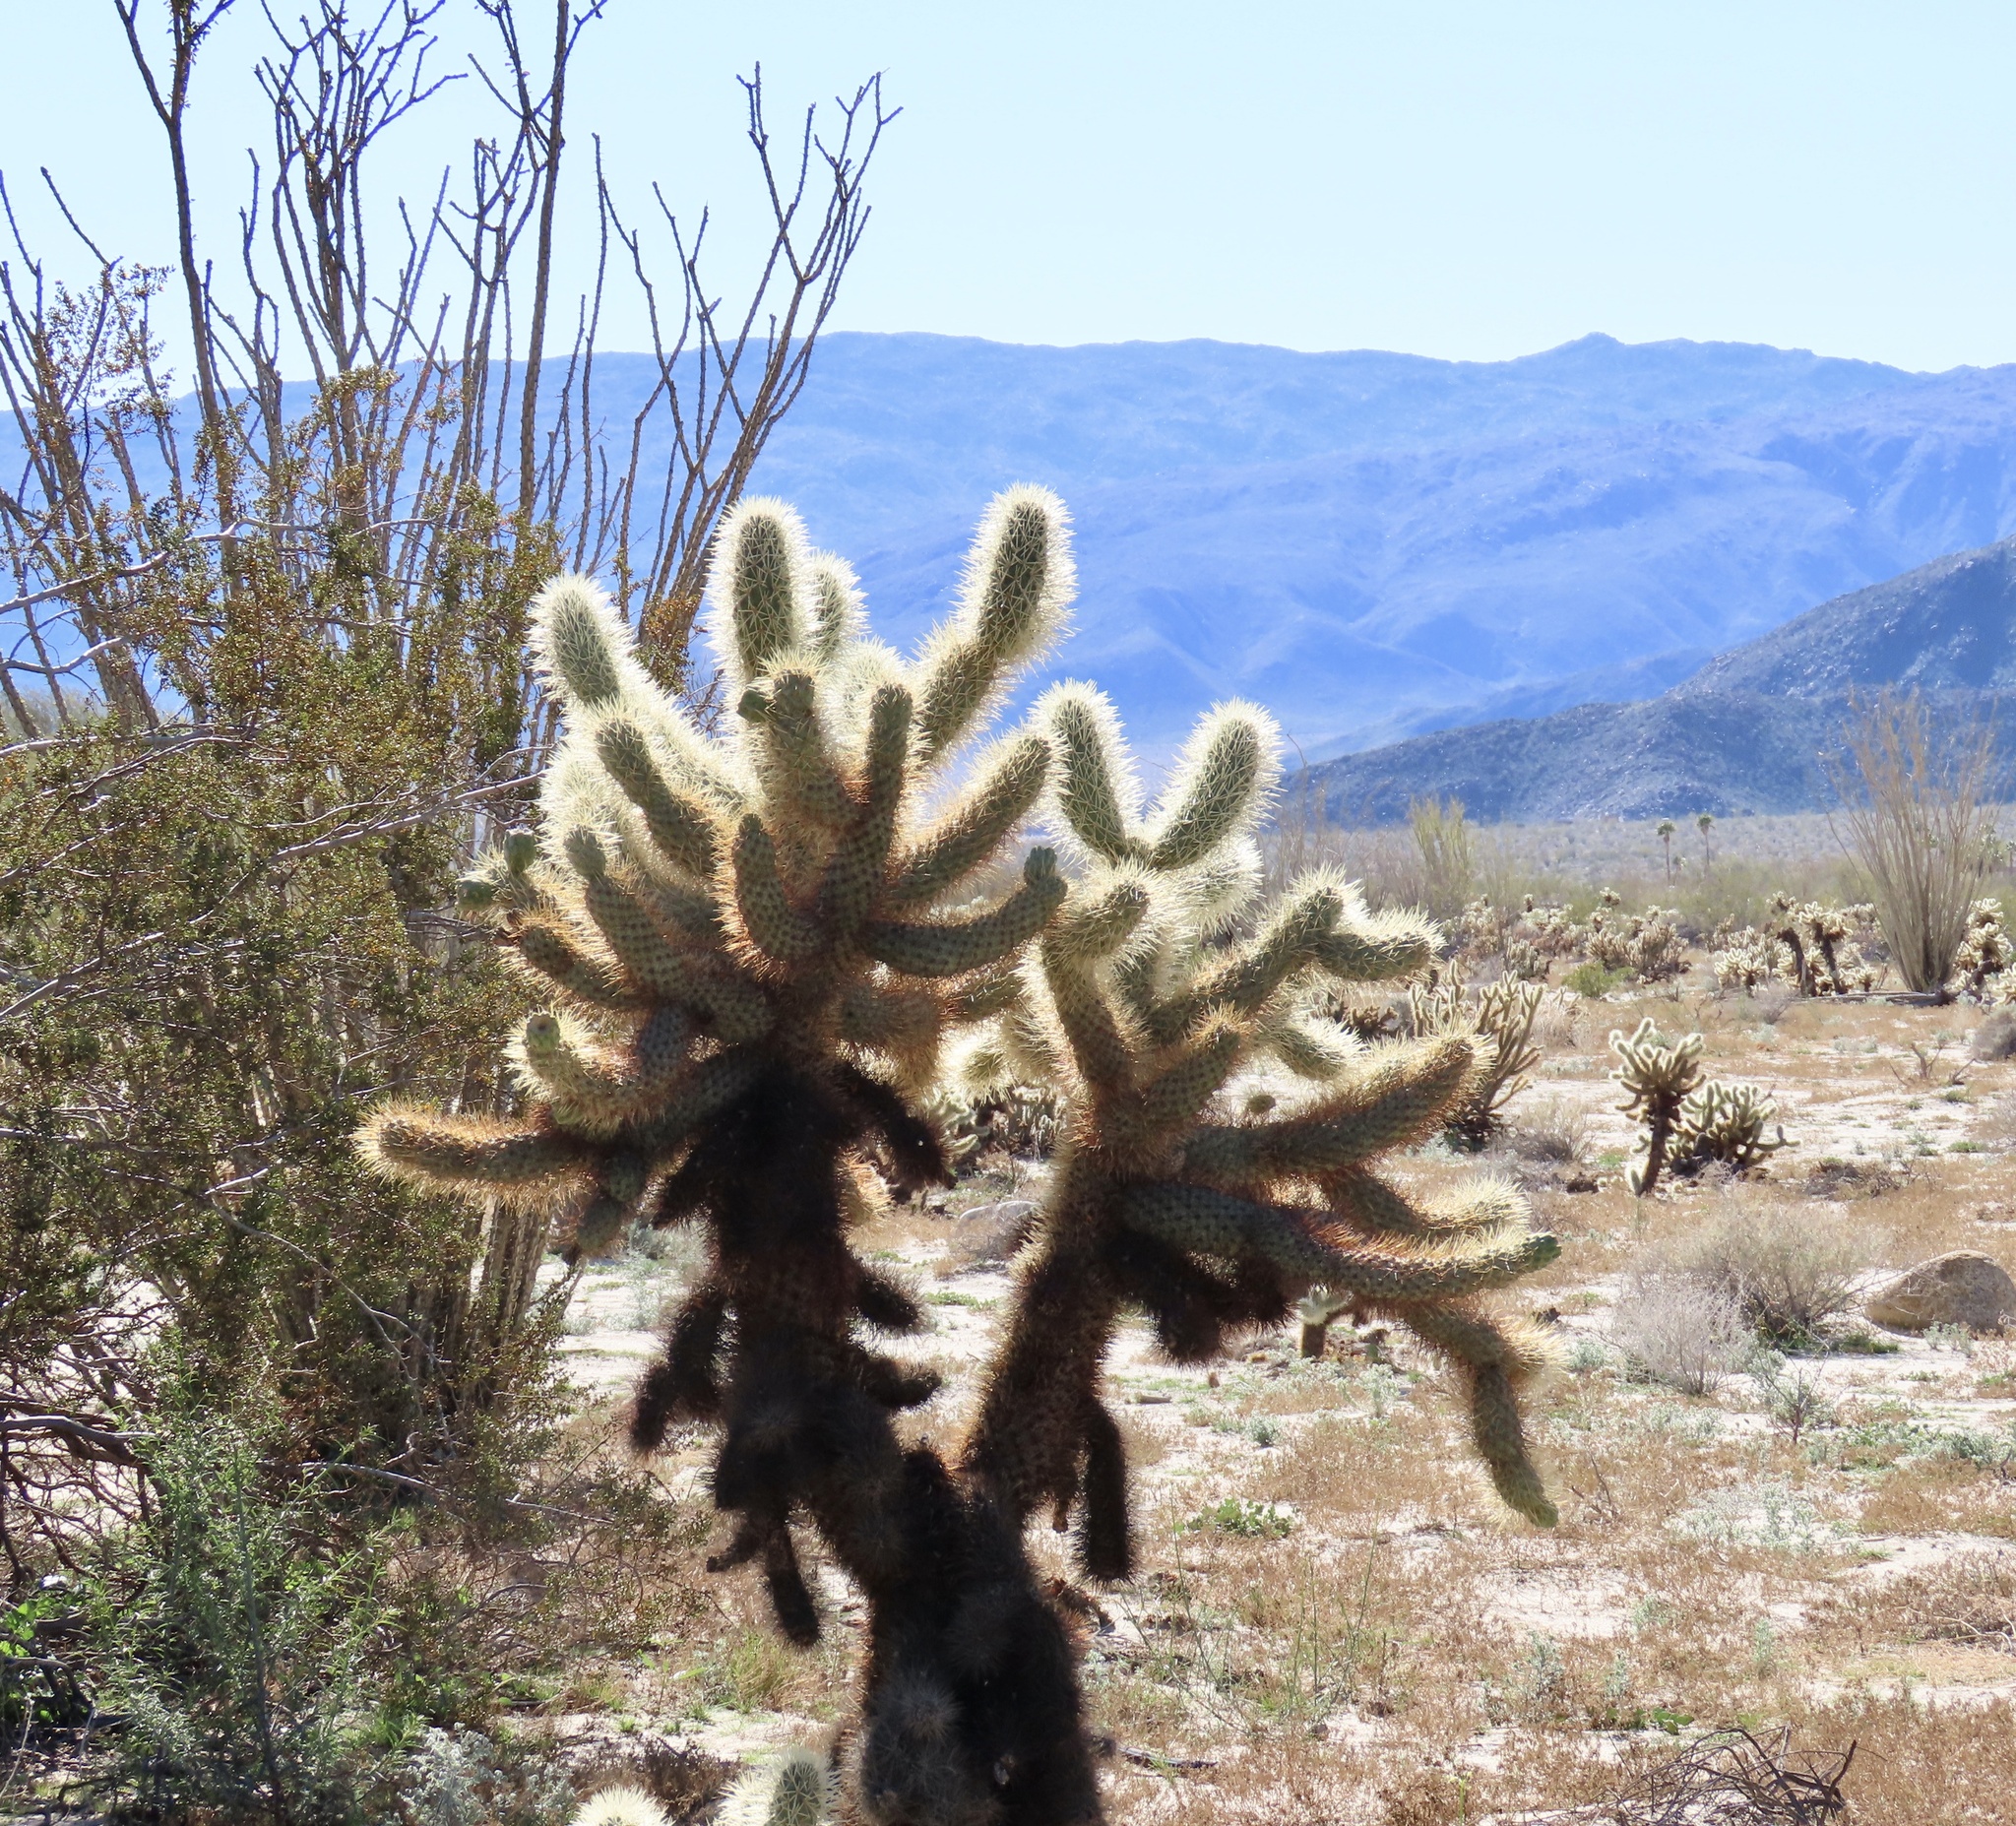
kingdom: Plantae
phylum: Tracheophyta
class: Magnoliopsida
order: Caryophyllales
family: Cactaceae
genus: Cylindropuntia
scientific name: Cylindropuntia fosbergii
